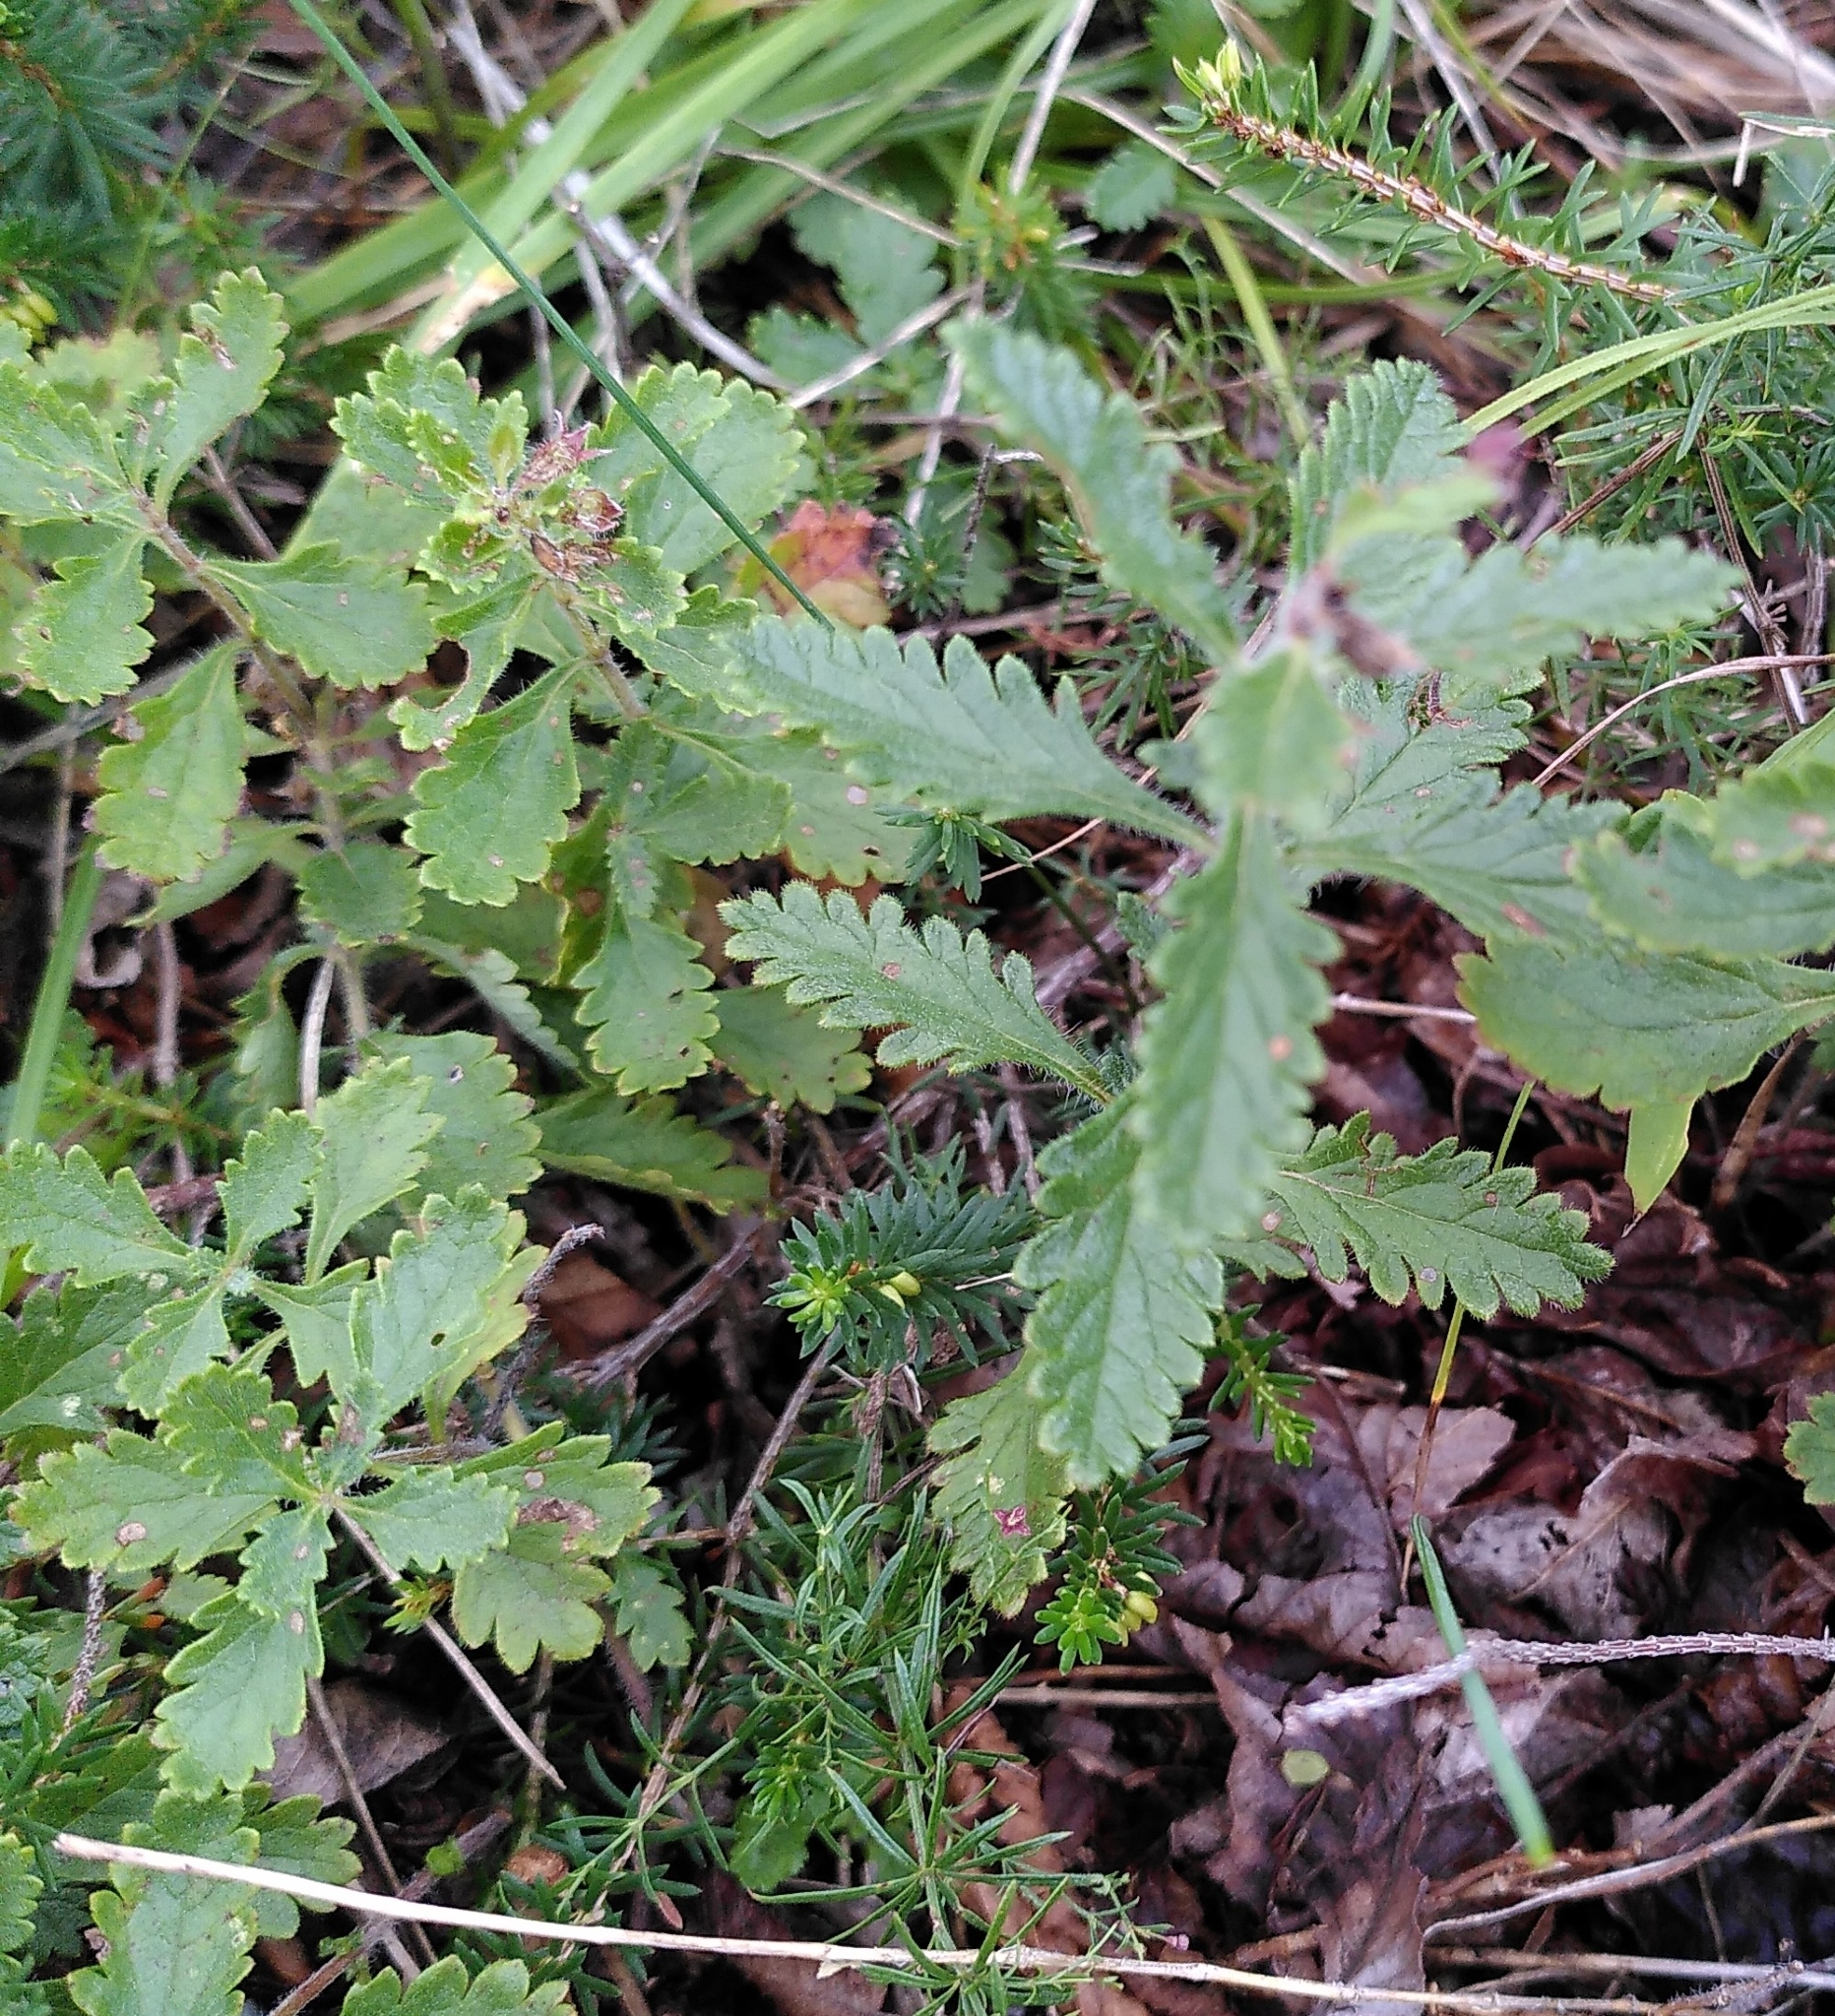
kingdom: Plantae
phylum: Tracheophyta
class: Magnoliopsida
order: Lamiales
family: Lamiaceae
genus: Teucrium
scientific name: Teucrium chamaedrys
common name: Wall germander
